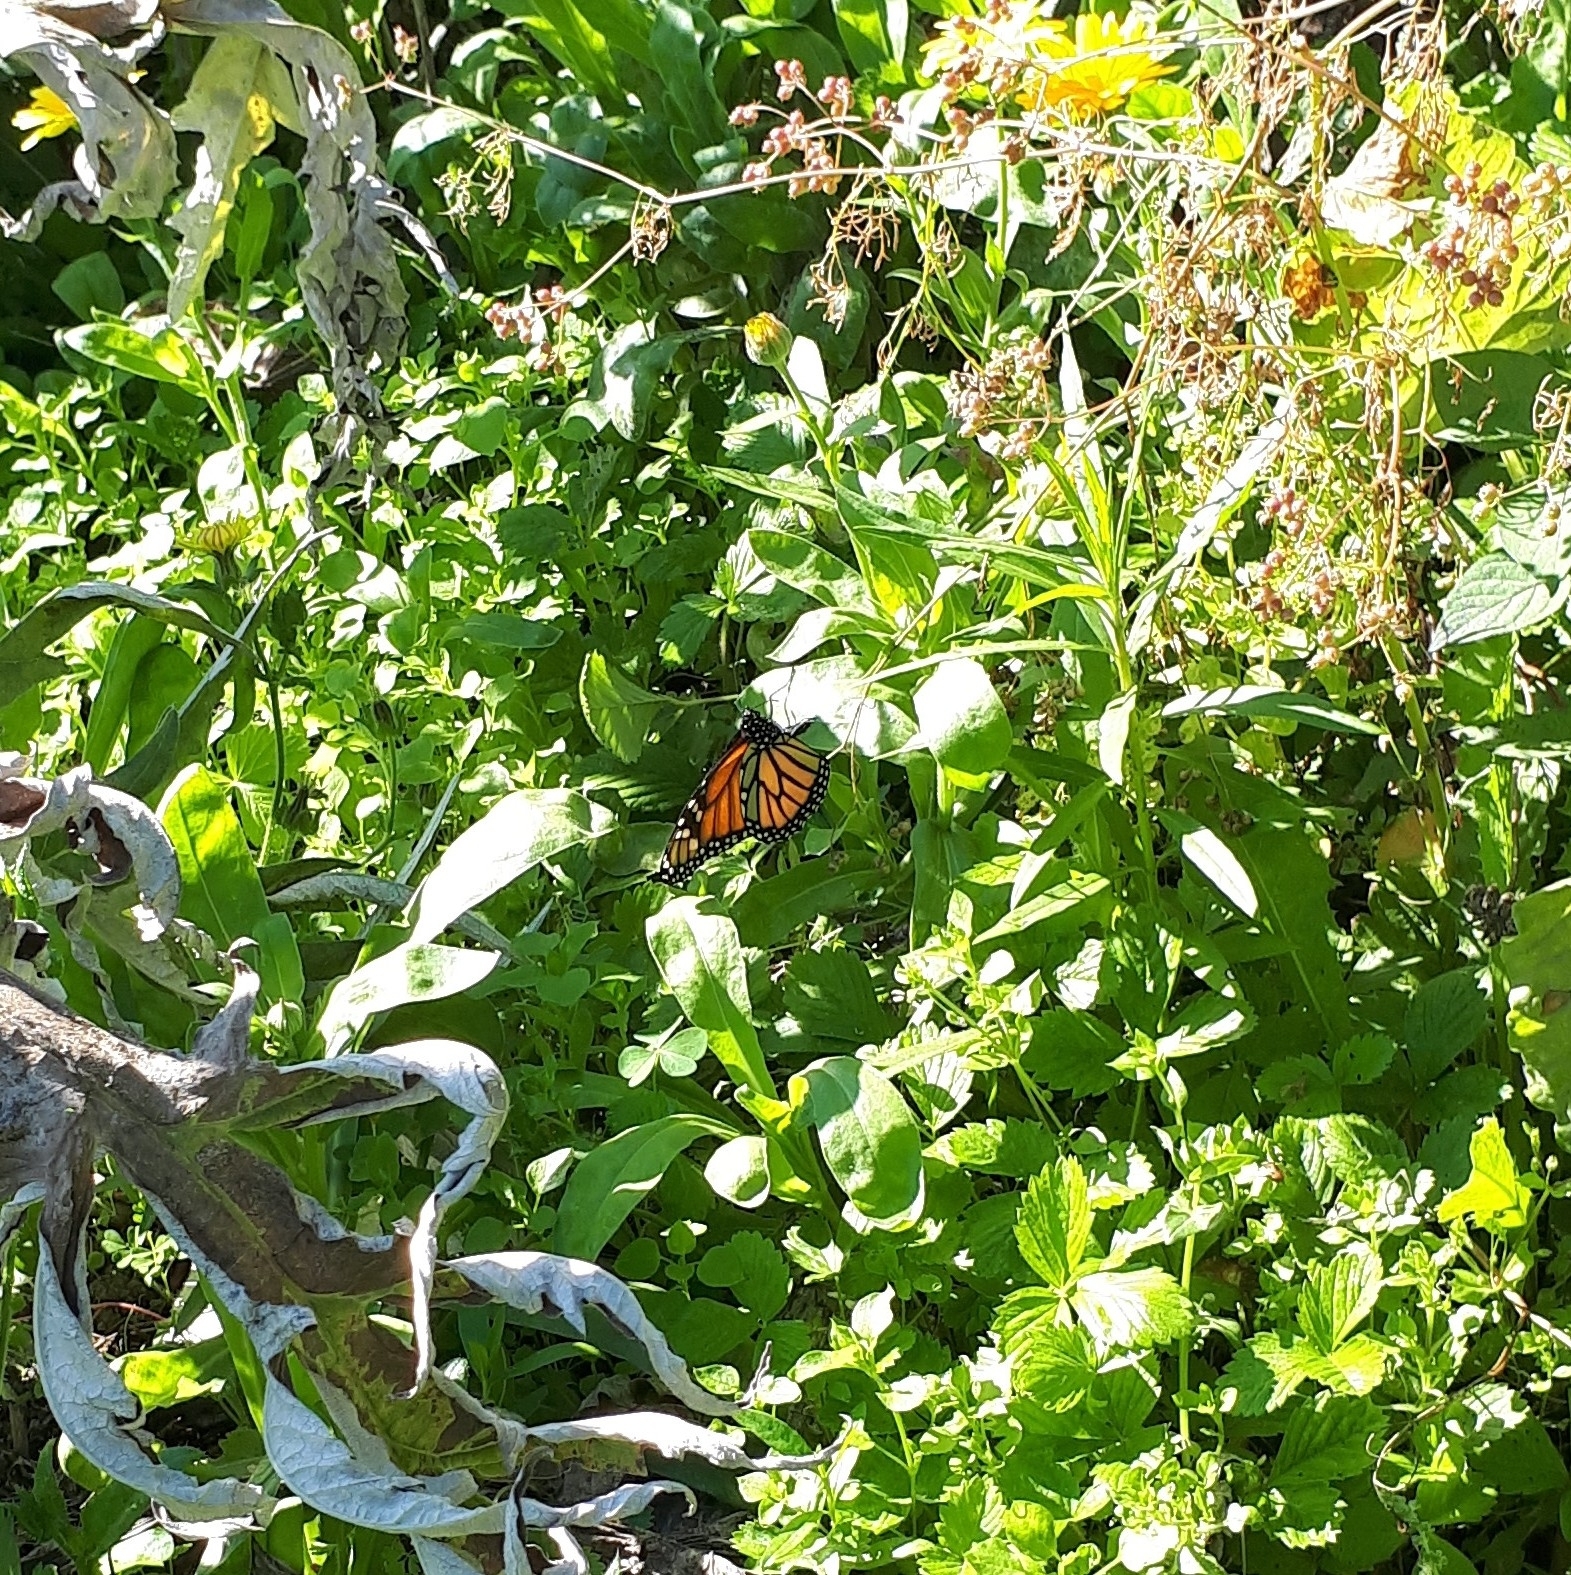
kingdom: Animalia
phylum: Arthropoda
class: Insecta
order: Lepidoptera
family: Nymphalidae
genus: Danaus
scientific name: Danaus plexippus
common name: Monarch
